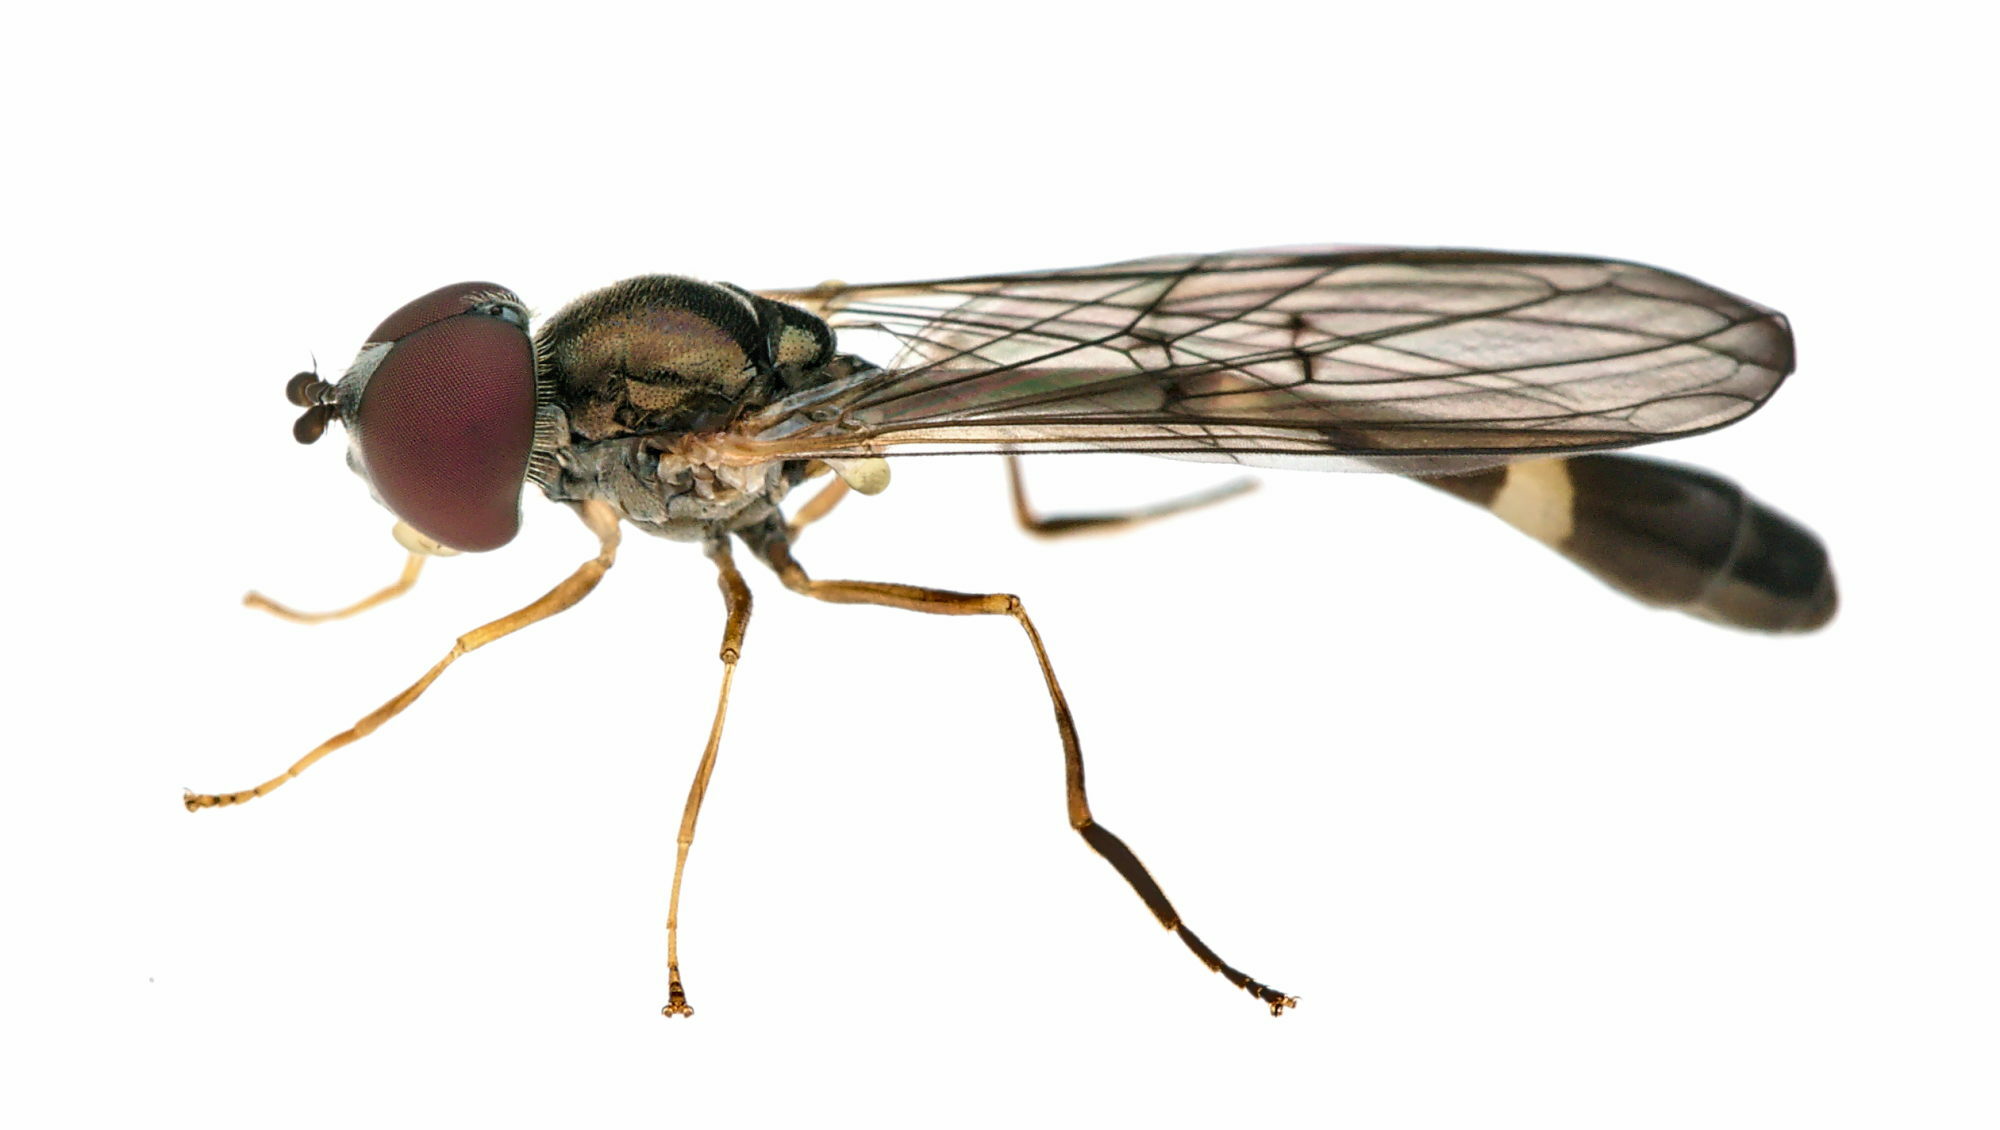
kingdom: Animalia
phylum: Arthropoda
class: Insecta
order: Diptera
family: Syrphidae
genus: Baccha
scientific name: Baccha elongata
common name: Common dainty
